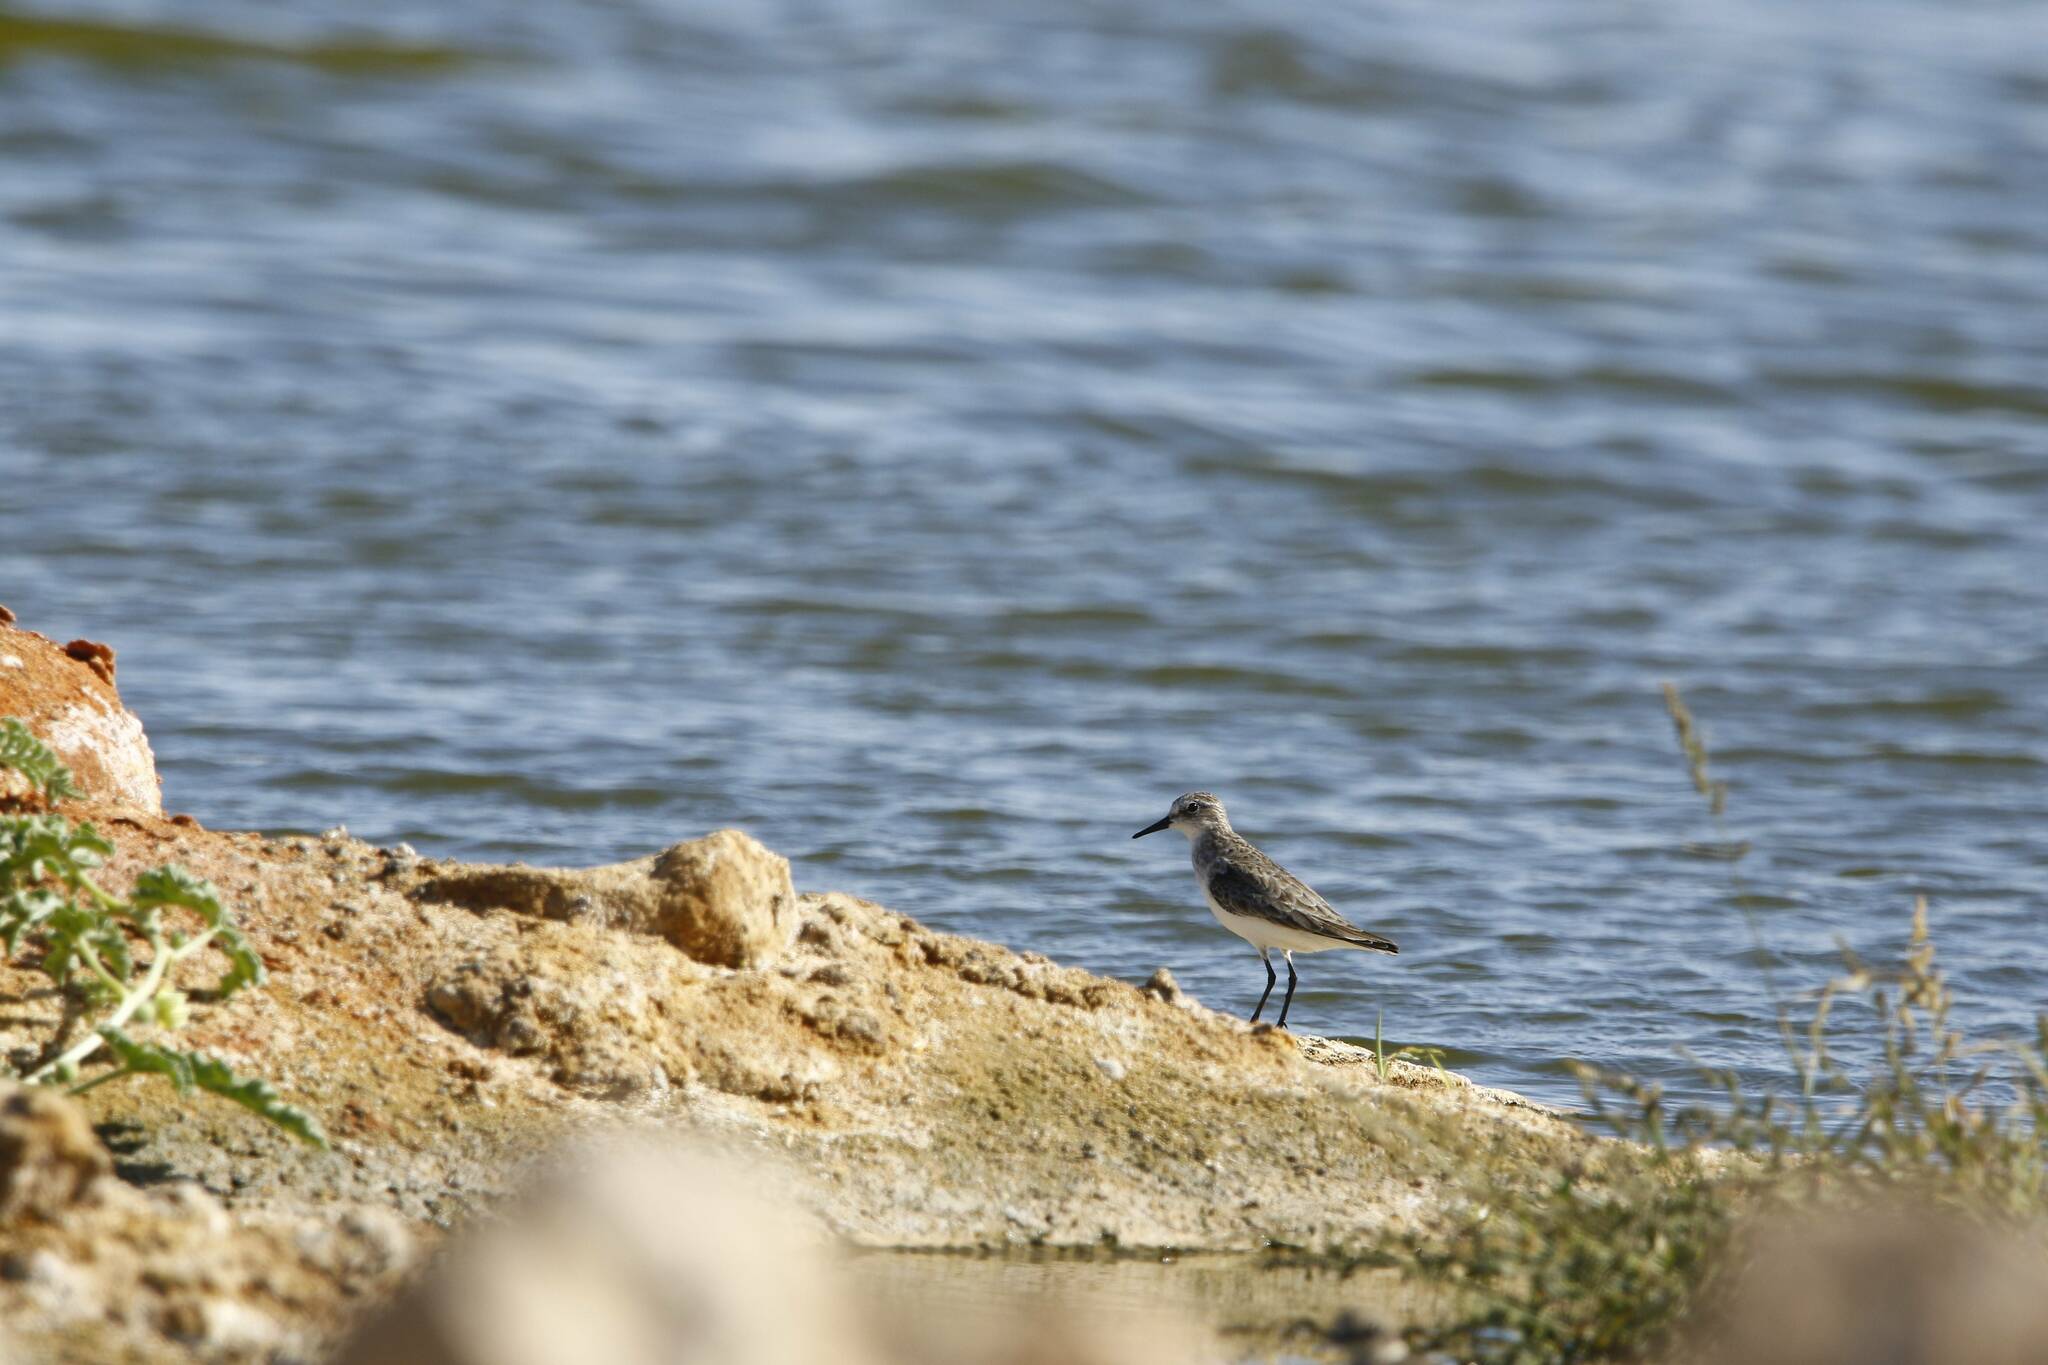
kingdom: Animalia
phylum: Chordata
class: Aves
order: Charadriiformes
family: Scolopacidae
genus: Calidris
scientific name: Calidris minuta
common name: Little stint
